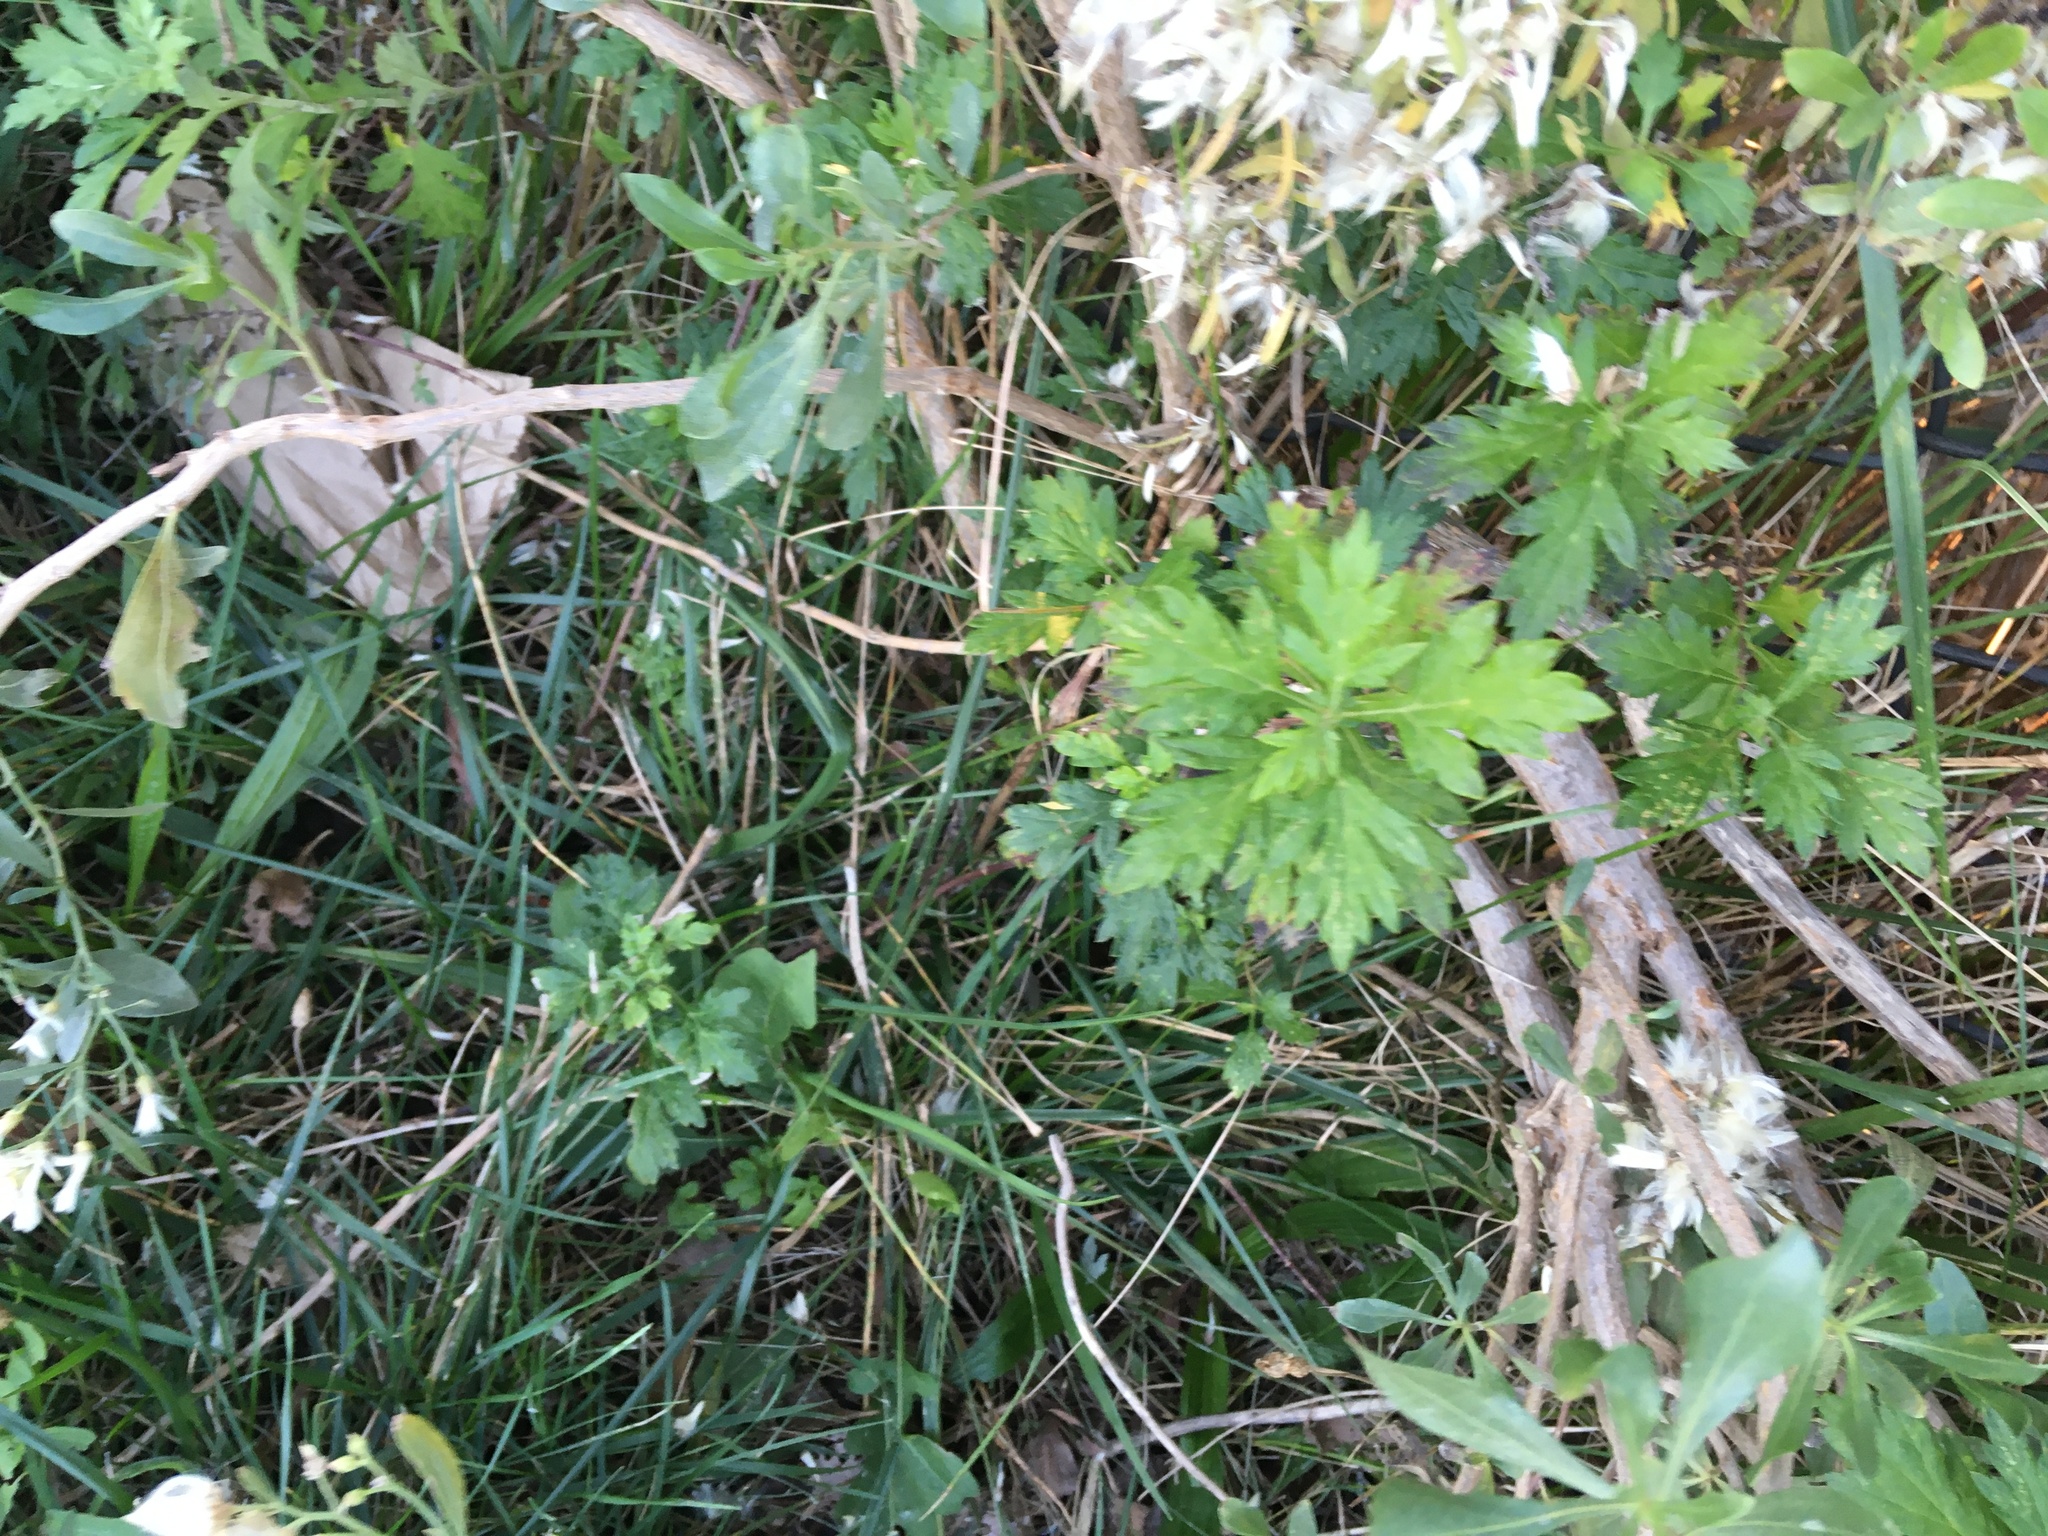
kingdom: Plantae
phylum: Tracheophyta
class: Magnoliopsida
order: Asterales
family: Asteraceae
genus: Artemisia
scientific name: Artemisia vulgaris
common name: Mugwort
